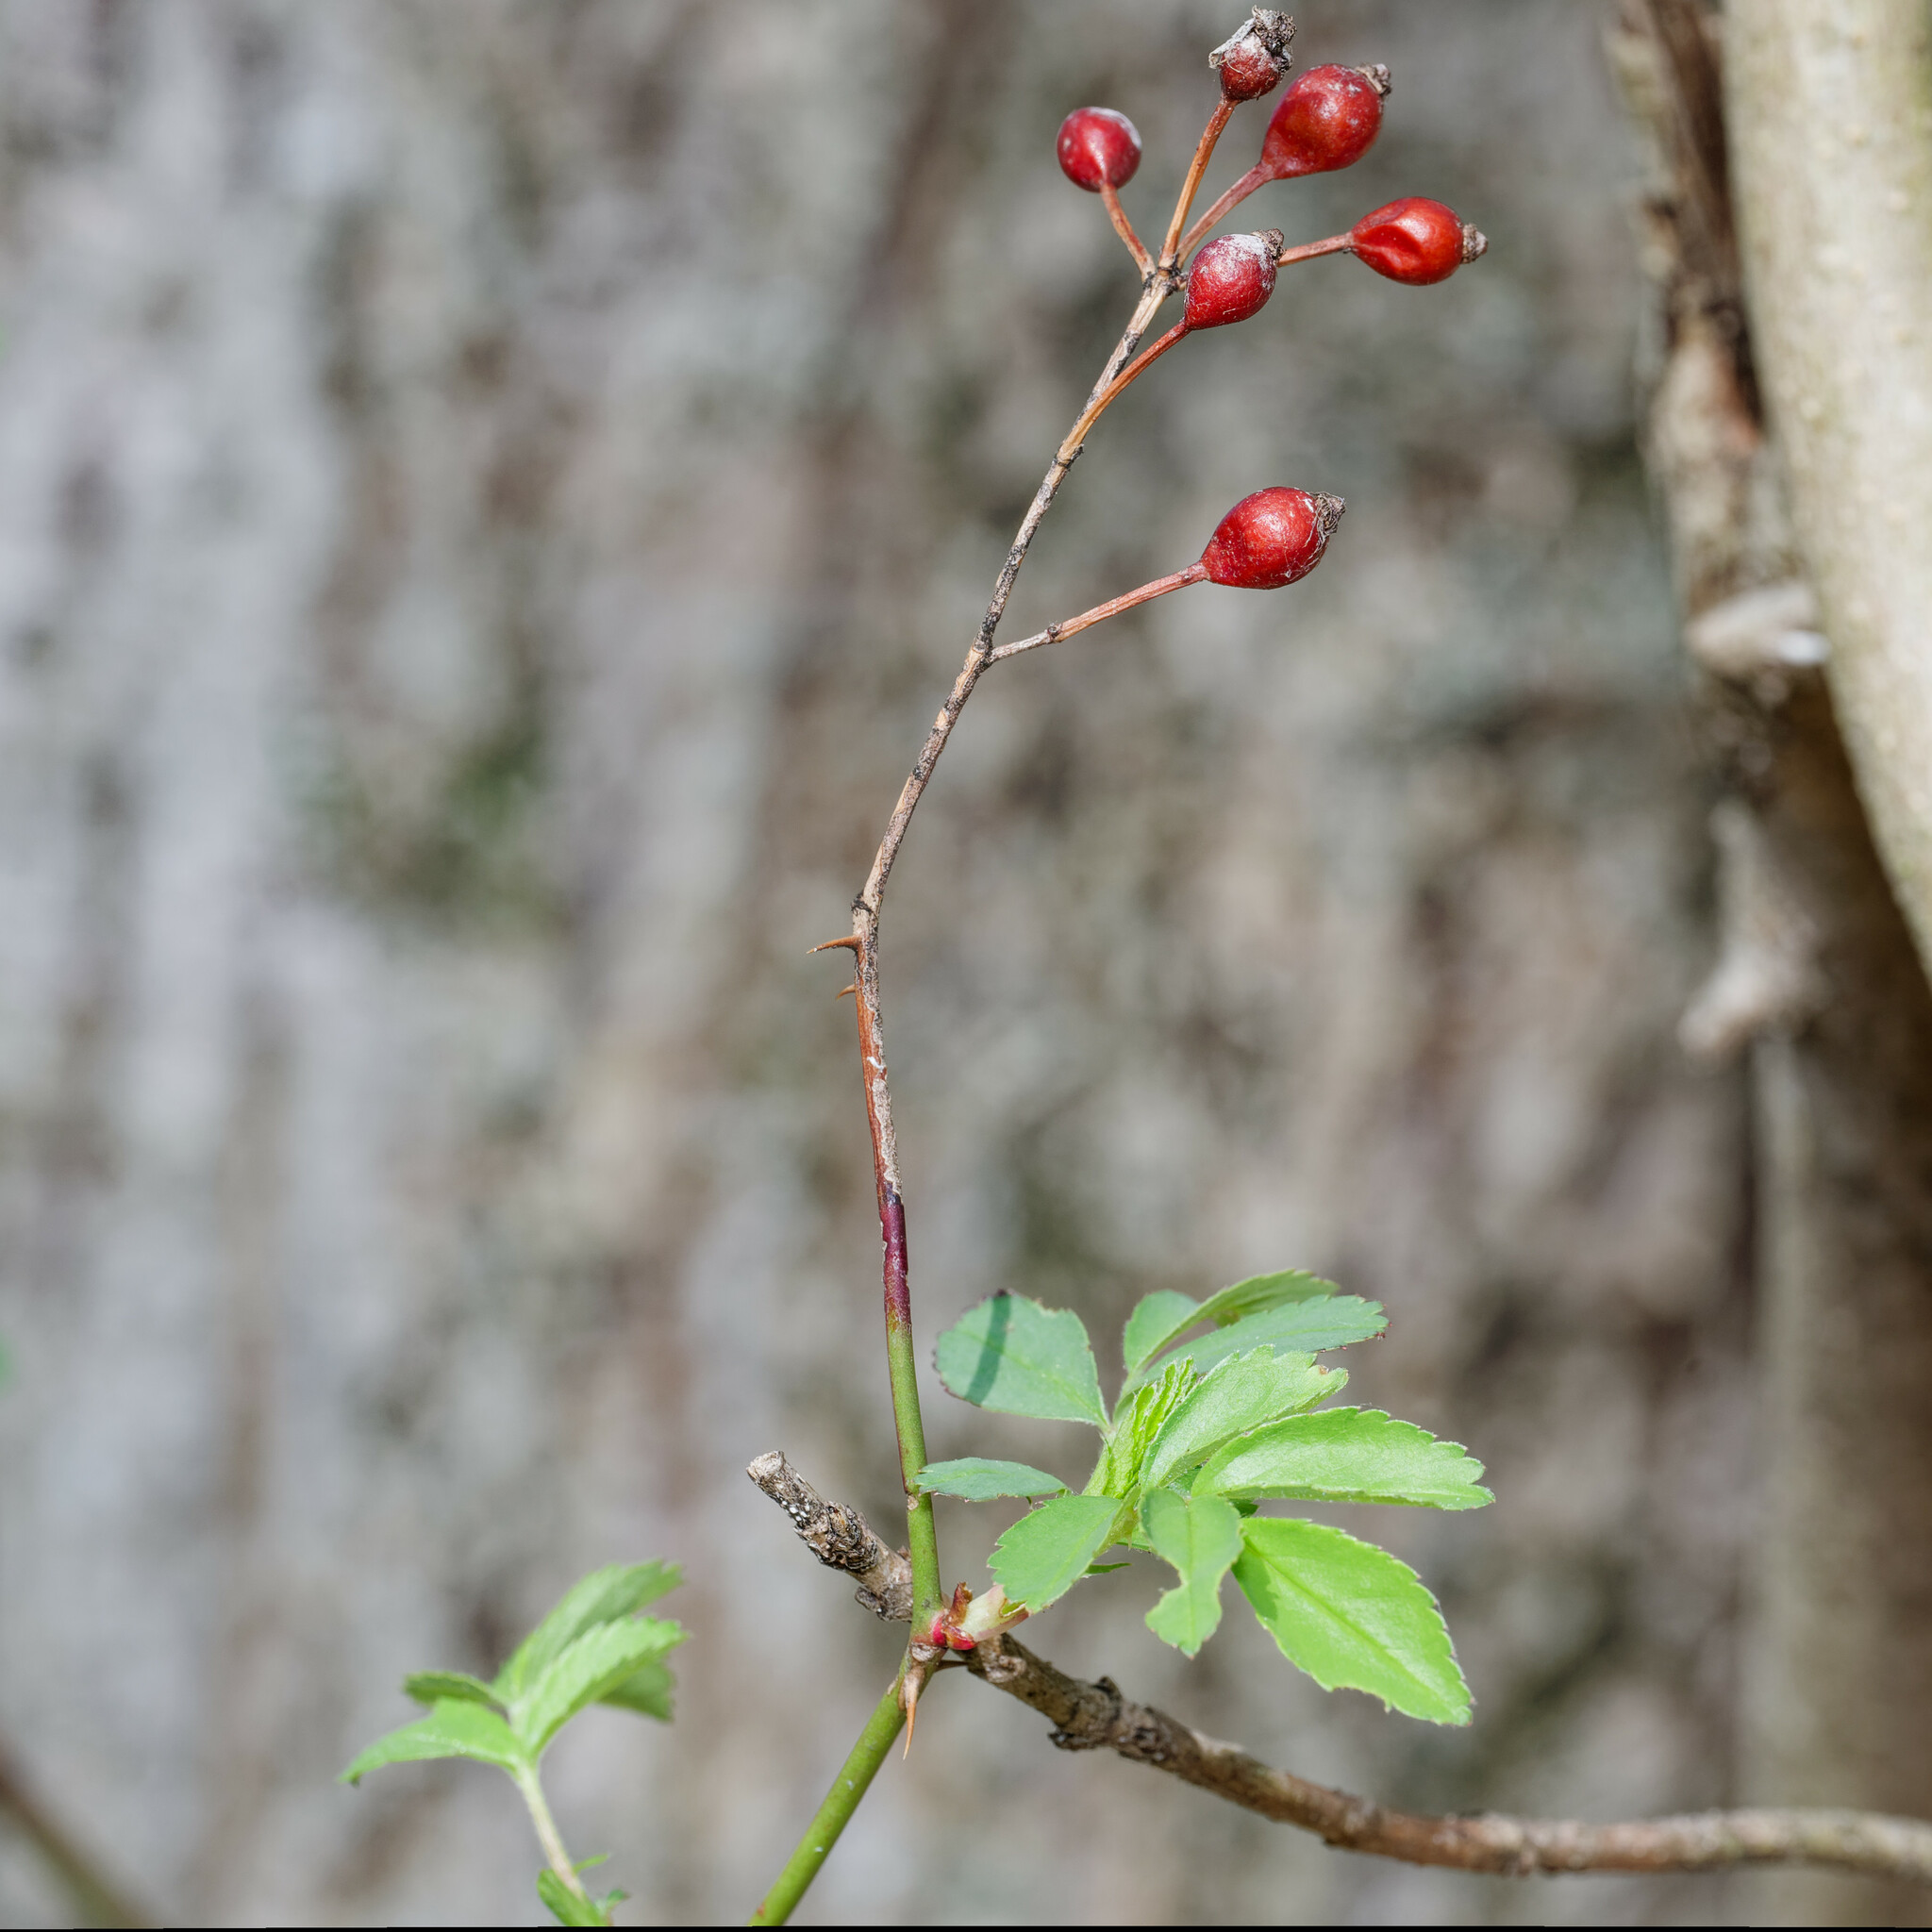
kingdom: Plantae
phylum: Tracheophyta
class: Magnoliopsida
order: Rosales
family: Rosaceae
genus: Rosa
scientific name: Rosa multiflora
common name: Multiflora rose
